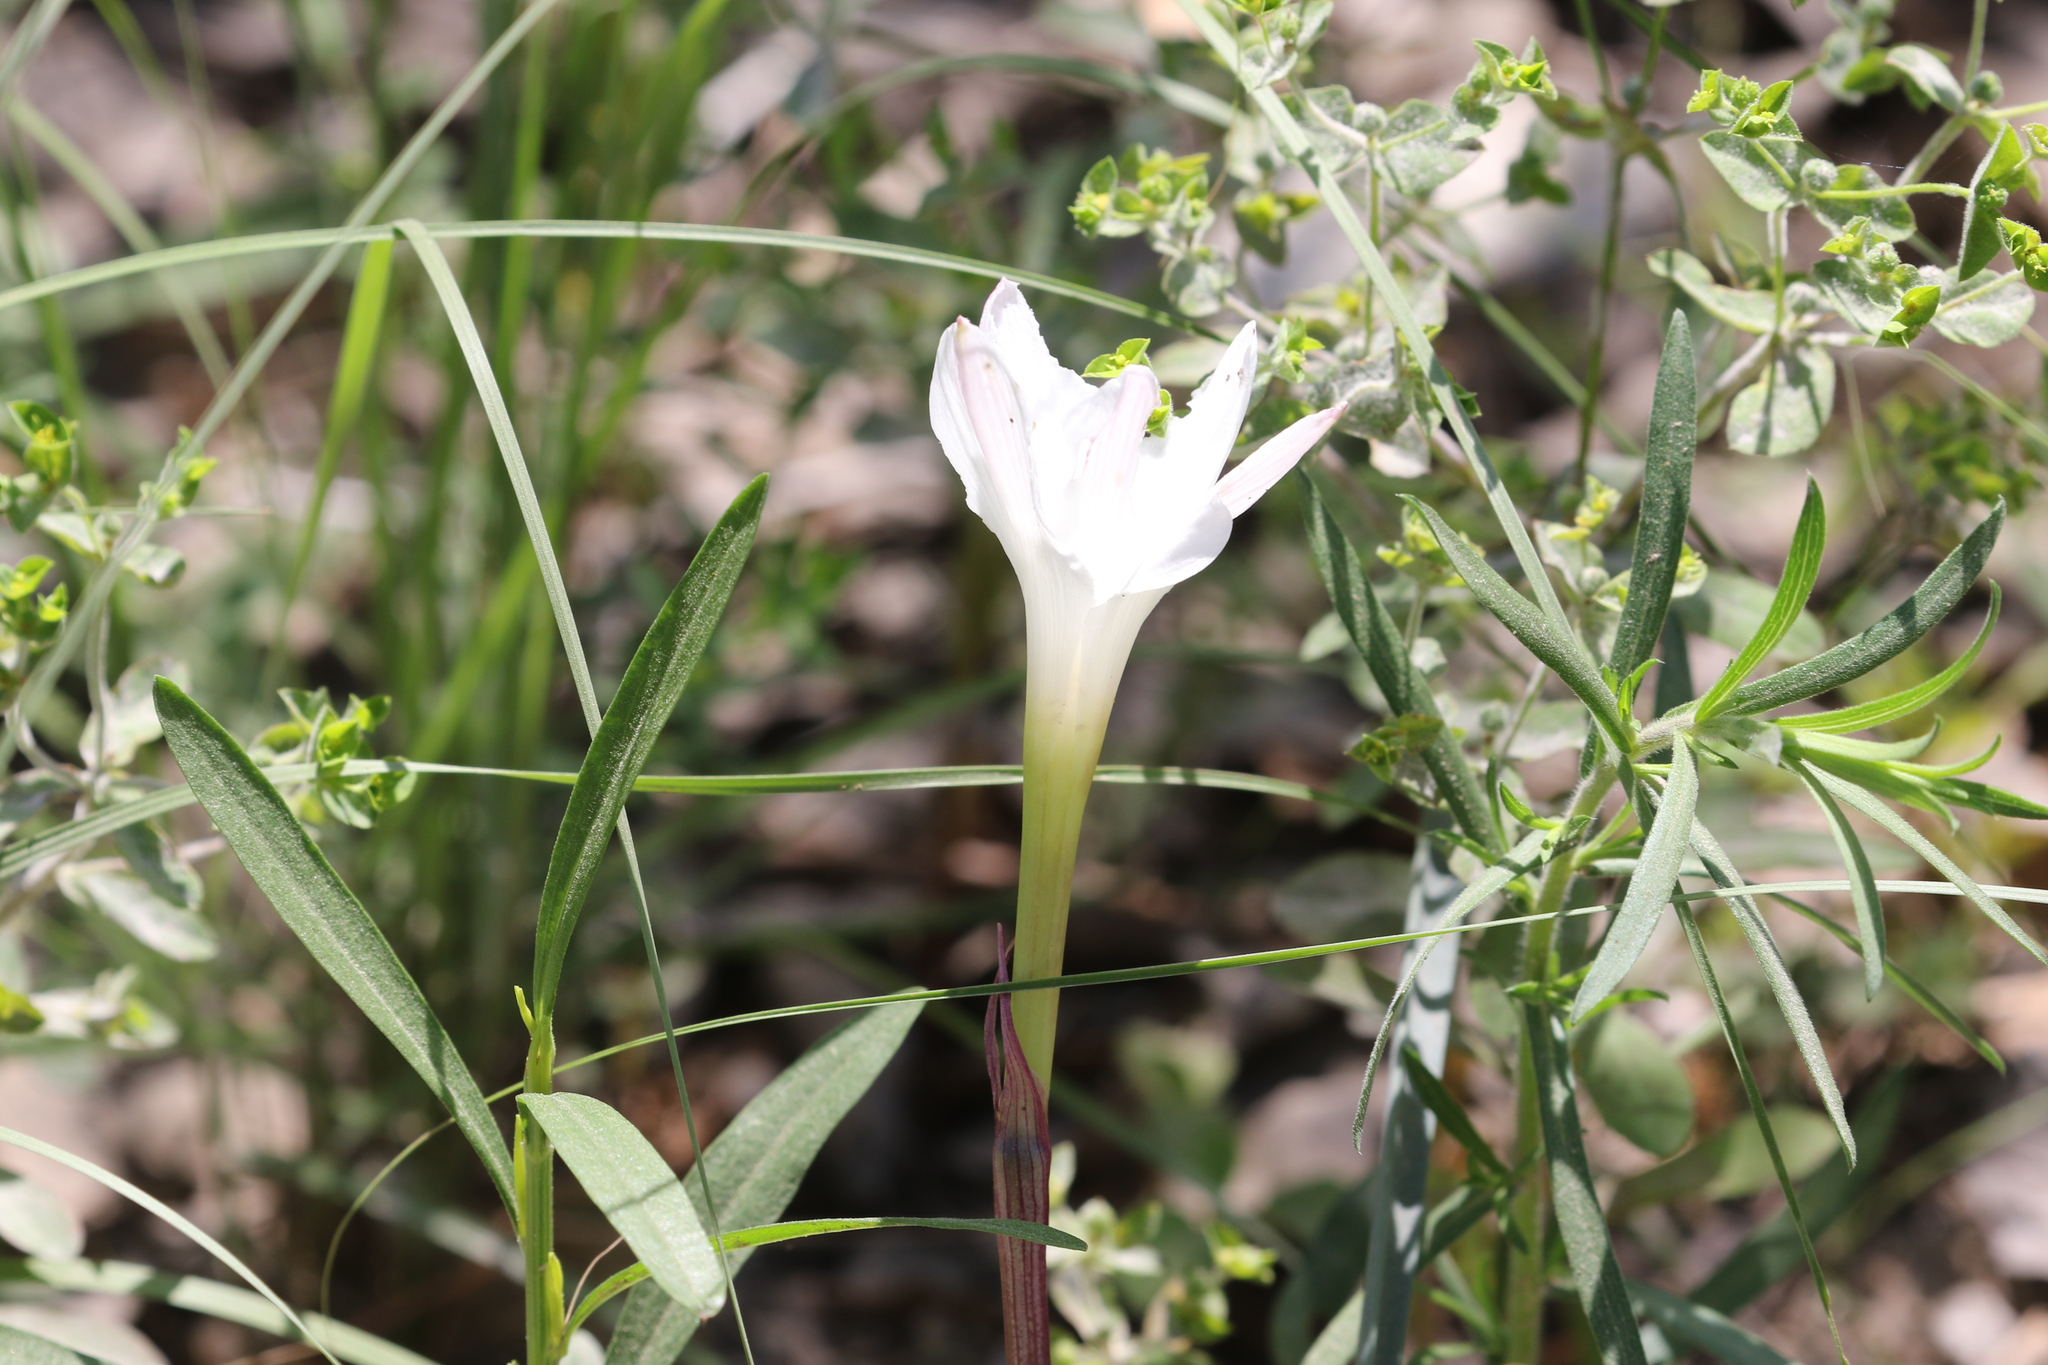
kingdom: Plantae
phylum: Tracheophyta
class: Liliopsida
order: Asparagales
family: Amaryllidaceae
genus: Zephyranthes
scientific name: Zephyranthes drummondii
